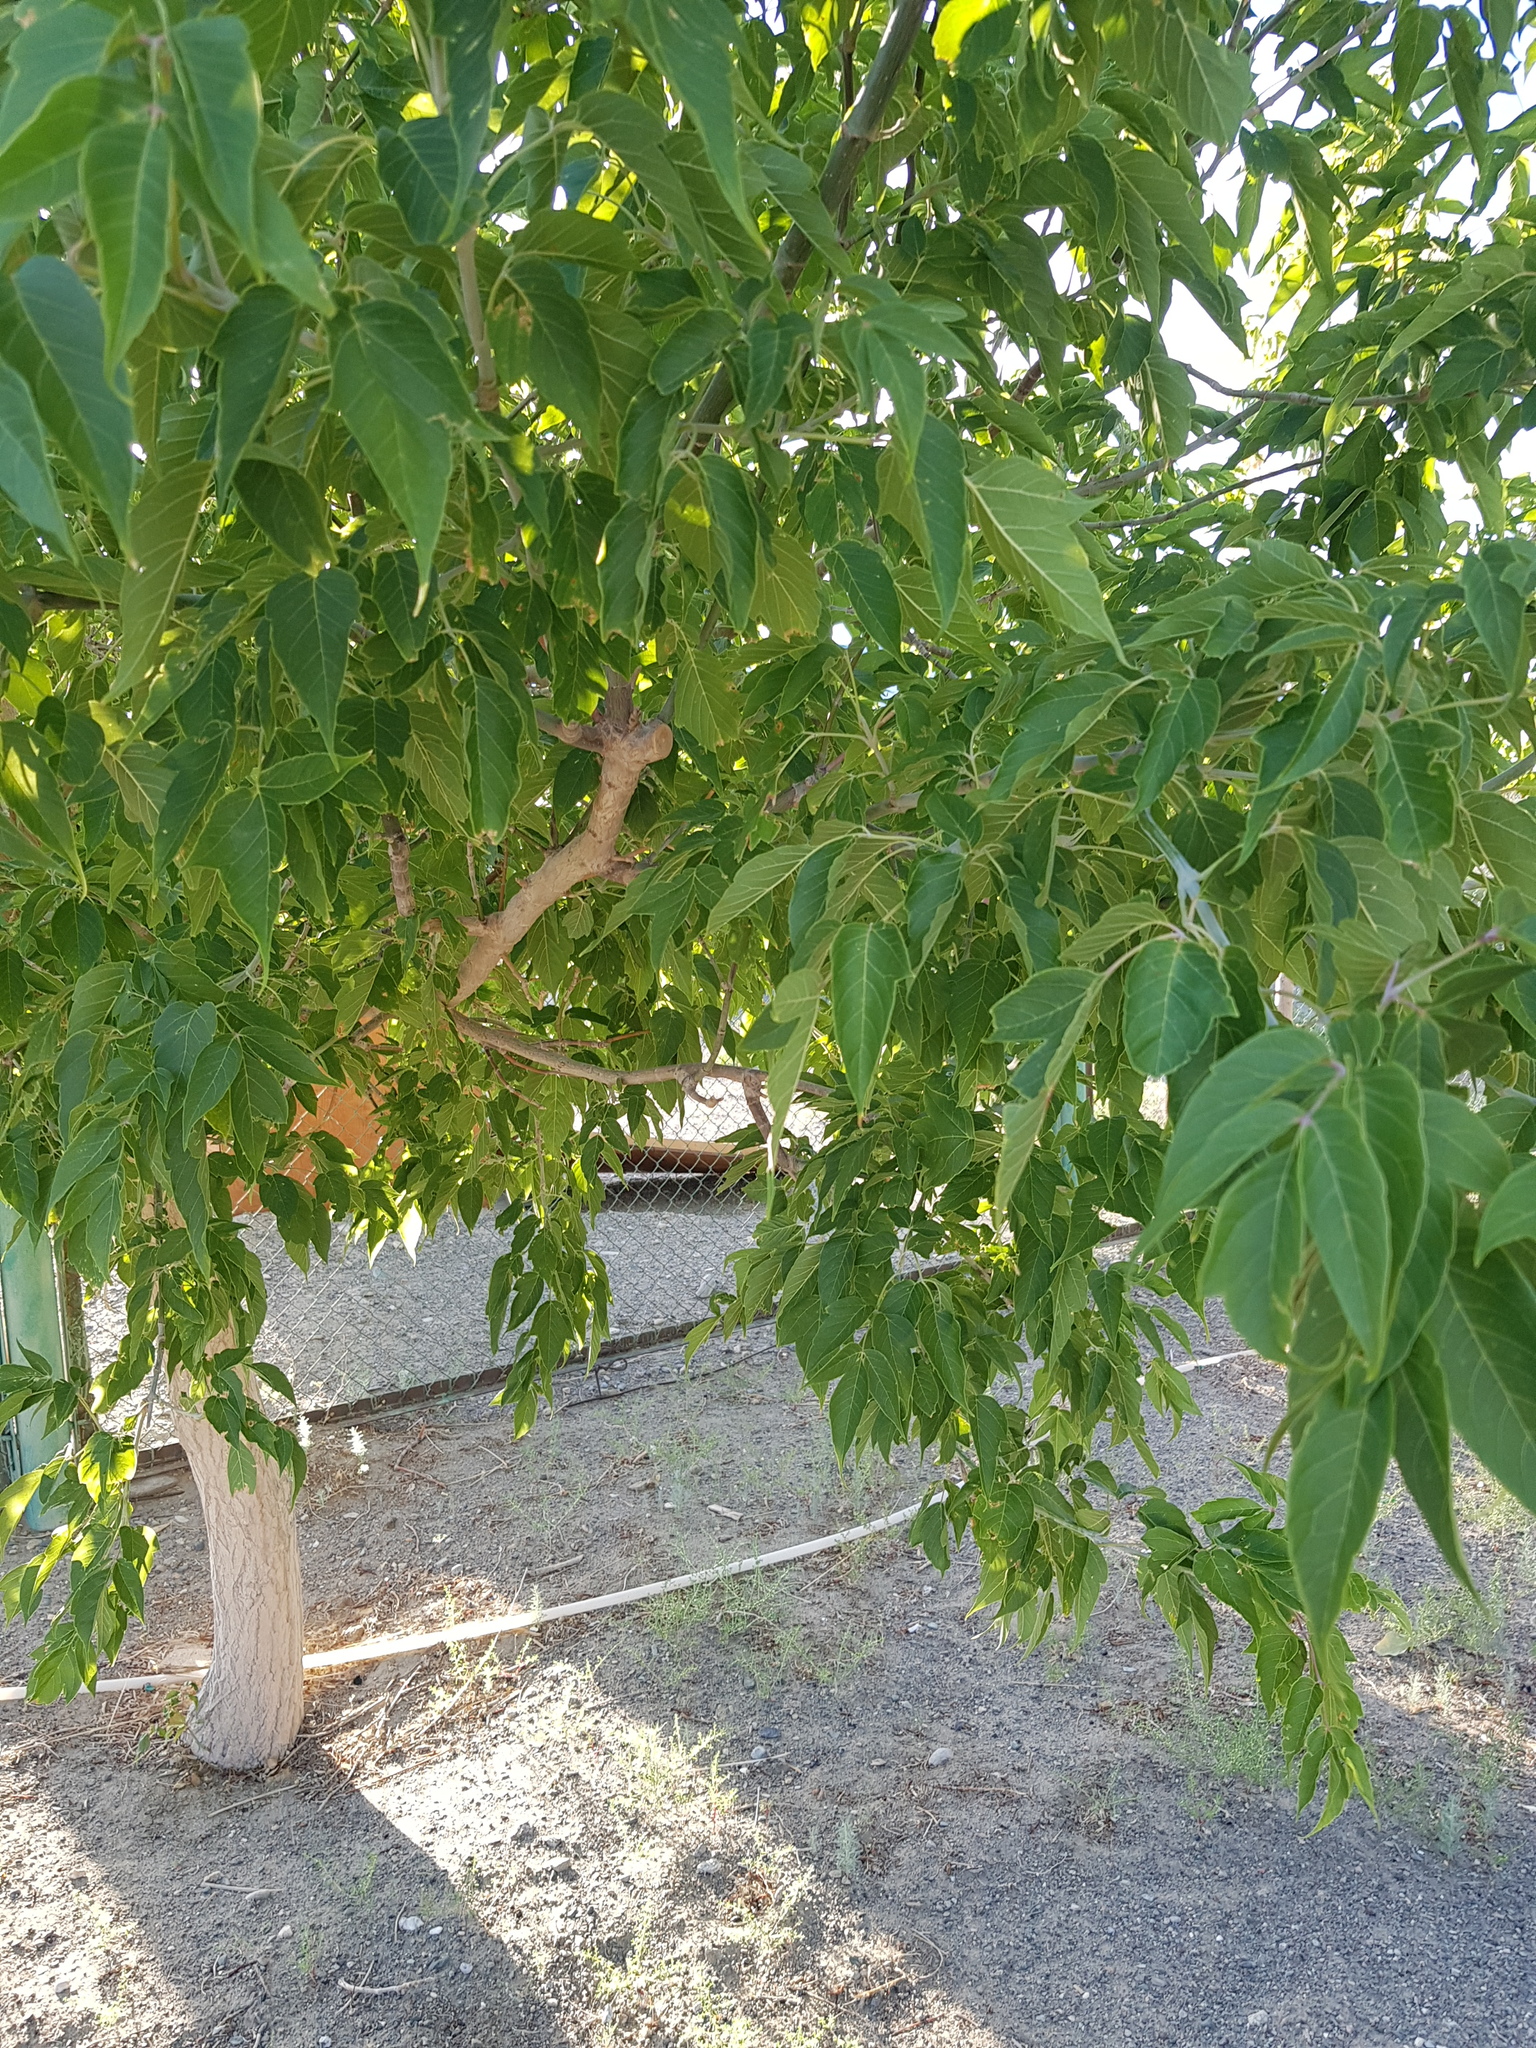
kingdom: Plantae
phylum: Tracheophyta
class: Magnoliopsida
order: Sapindales
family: Sapindaceae
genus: Acer
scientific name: Acer negundo
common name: Ashleaf maple
